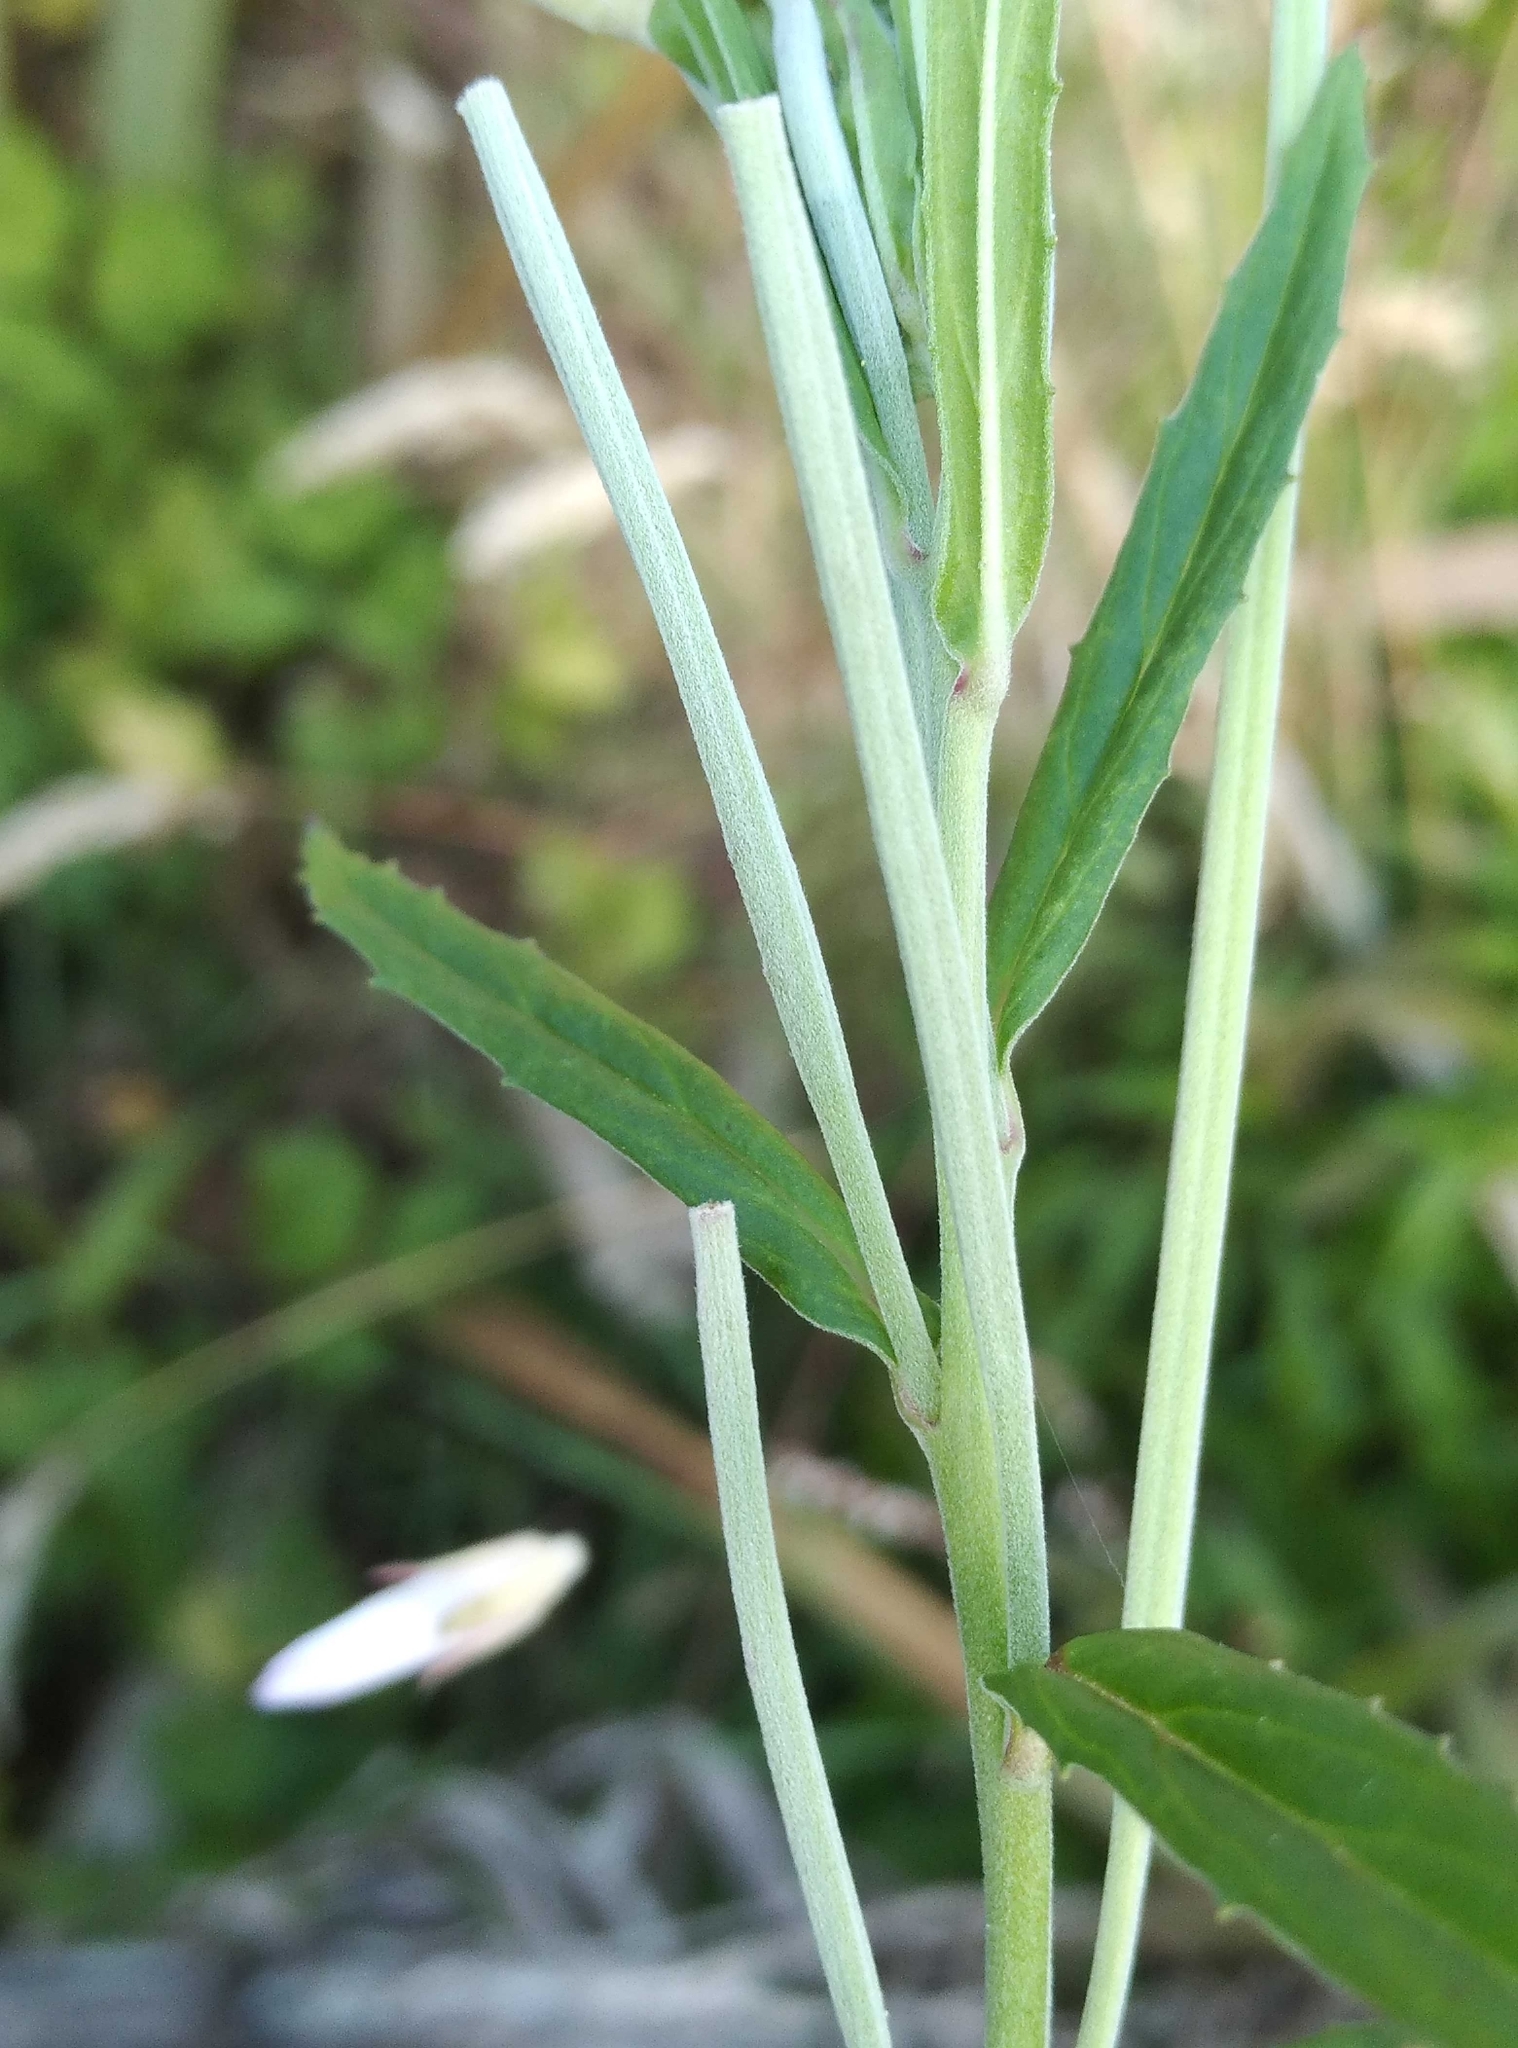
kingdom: Plantae
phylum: Tracheophyta
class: Magnoliopsida
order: Myrtales
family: Onagraceae
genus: Epilobium
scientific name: Epilobium pallidiflorum
